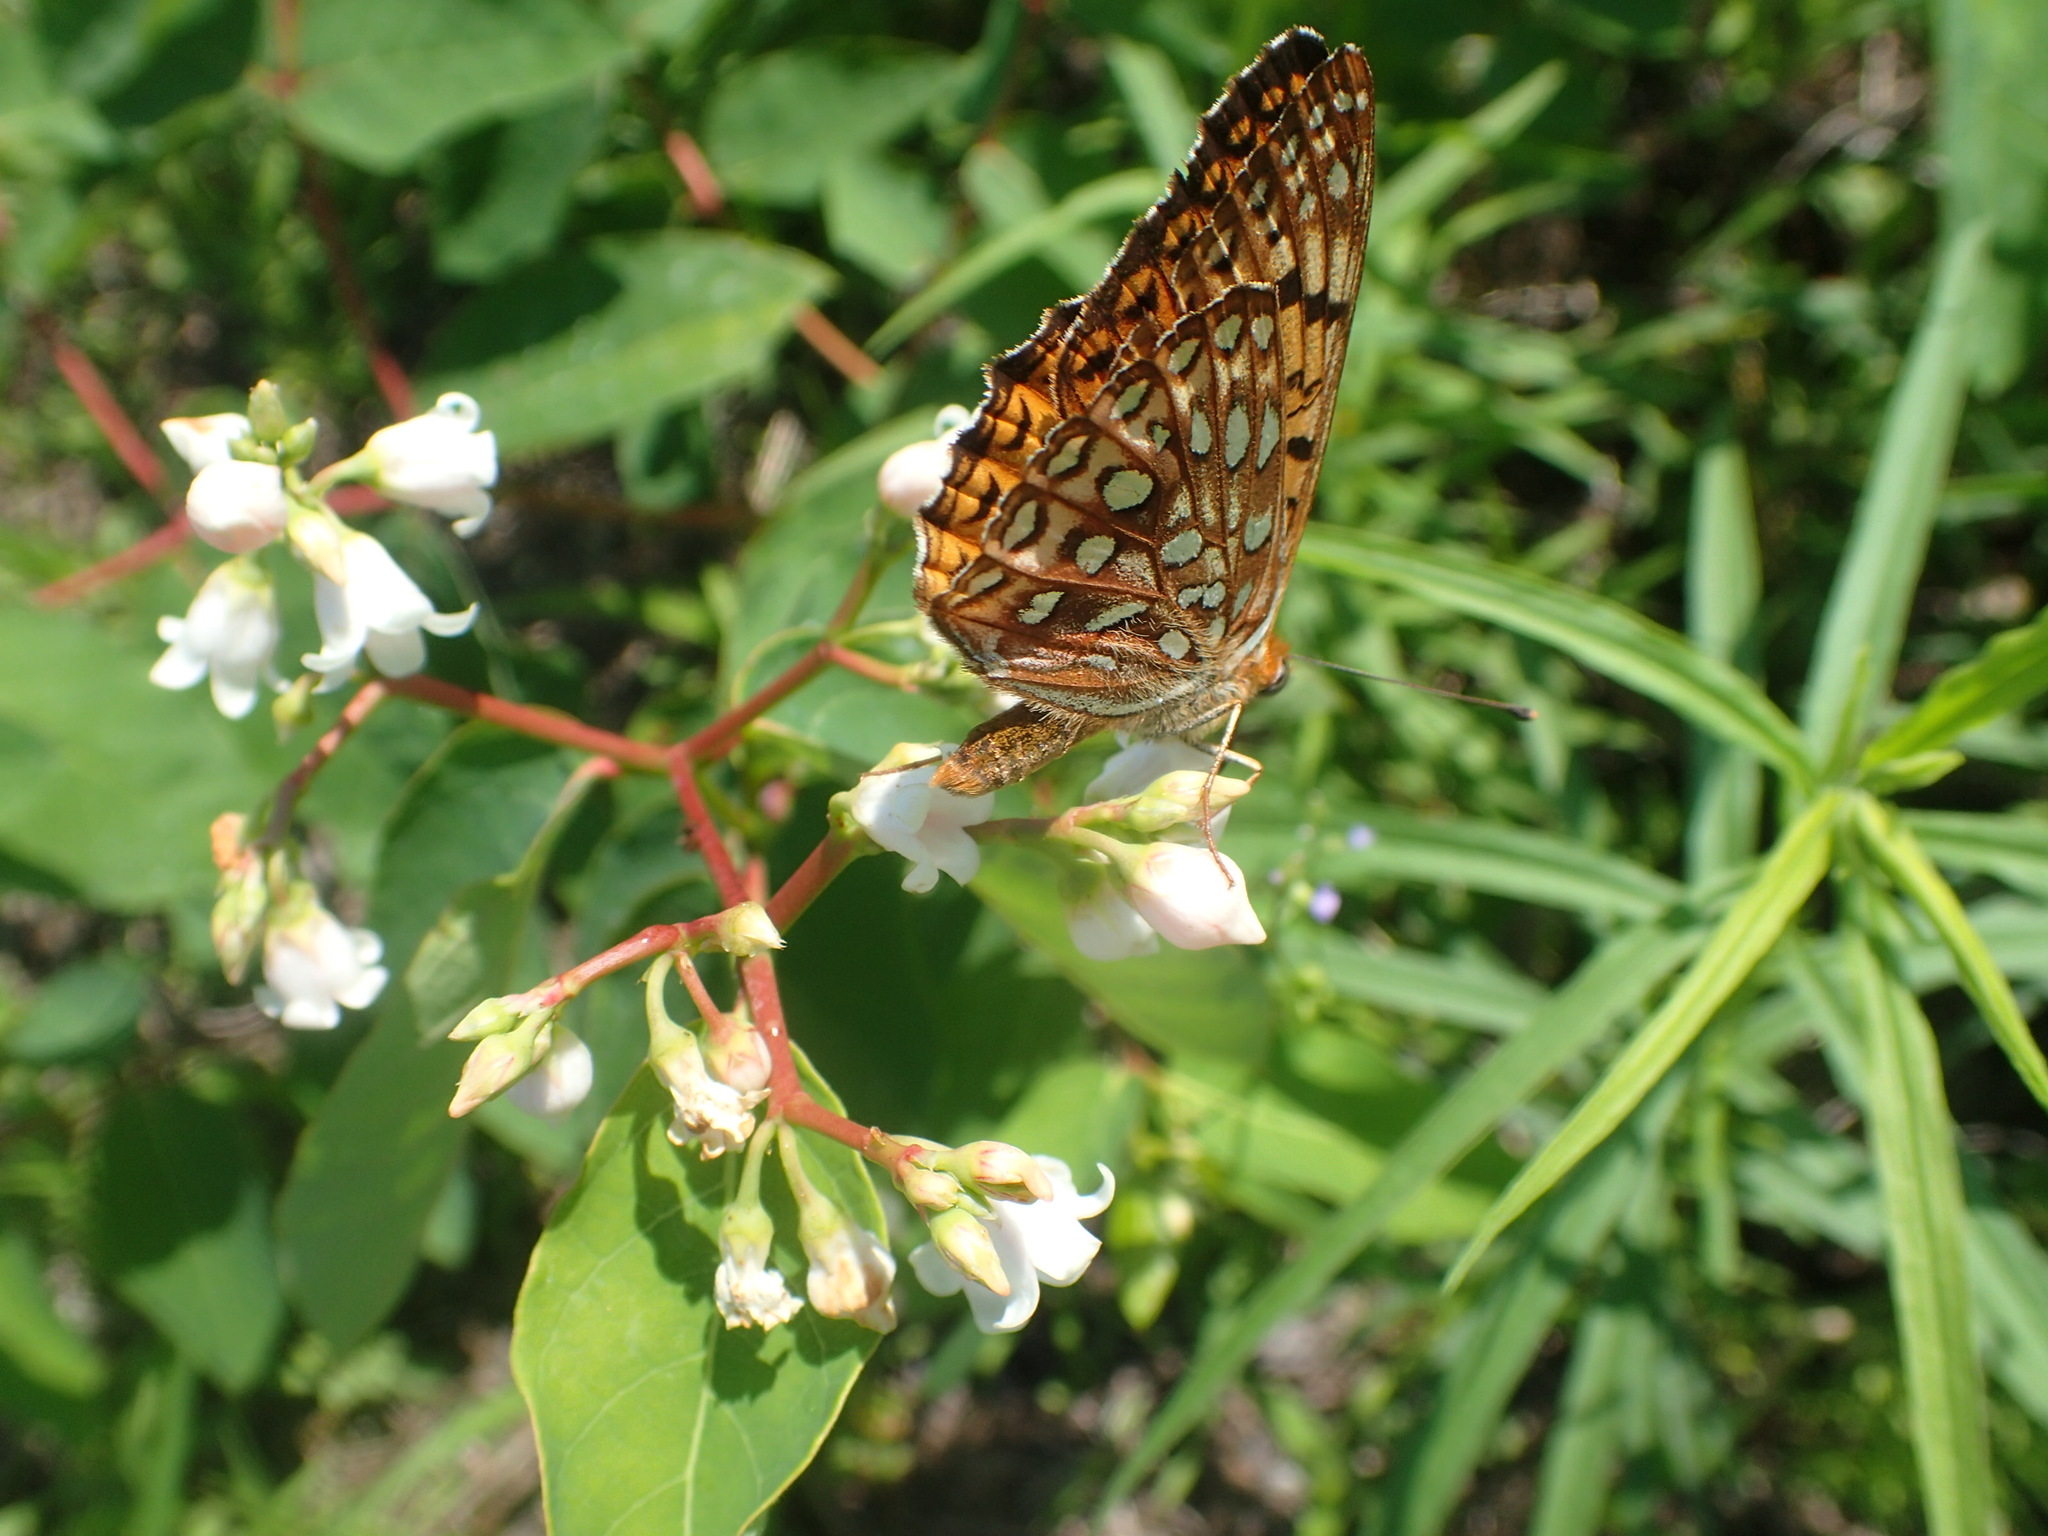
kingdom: Animalia
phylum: Arthropoda
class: Insecta
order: Lepidoptera
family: Nymphalidae
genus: Speyeria
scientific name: Speyeria atlantis
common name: Atlantis fritillary
